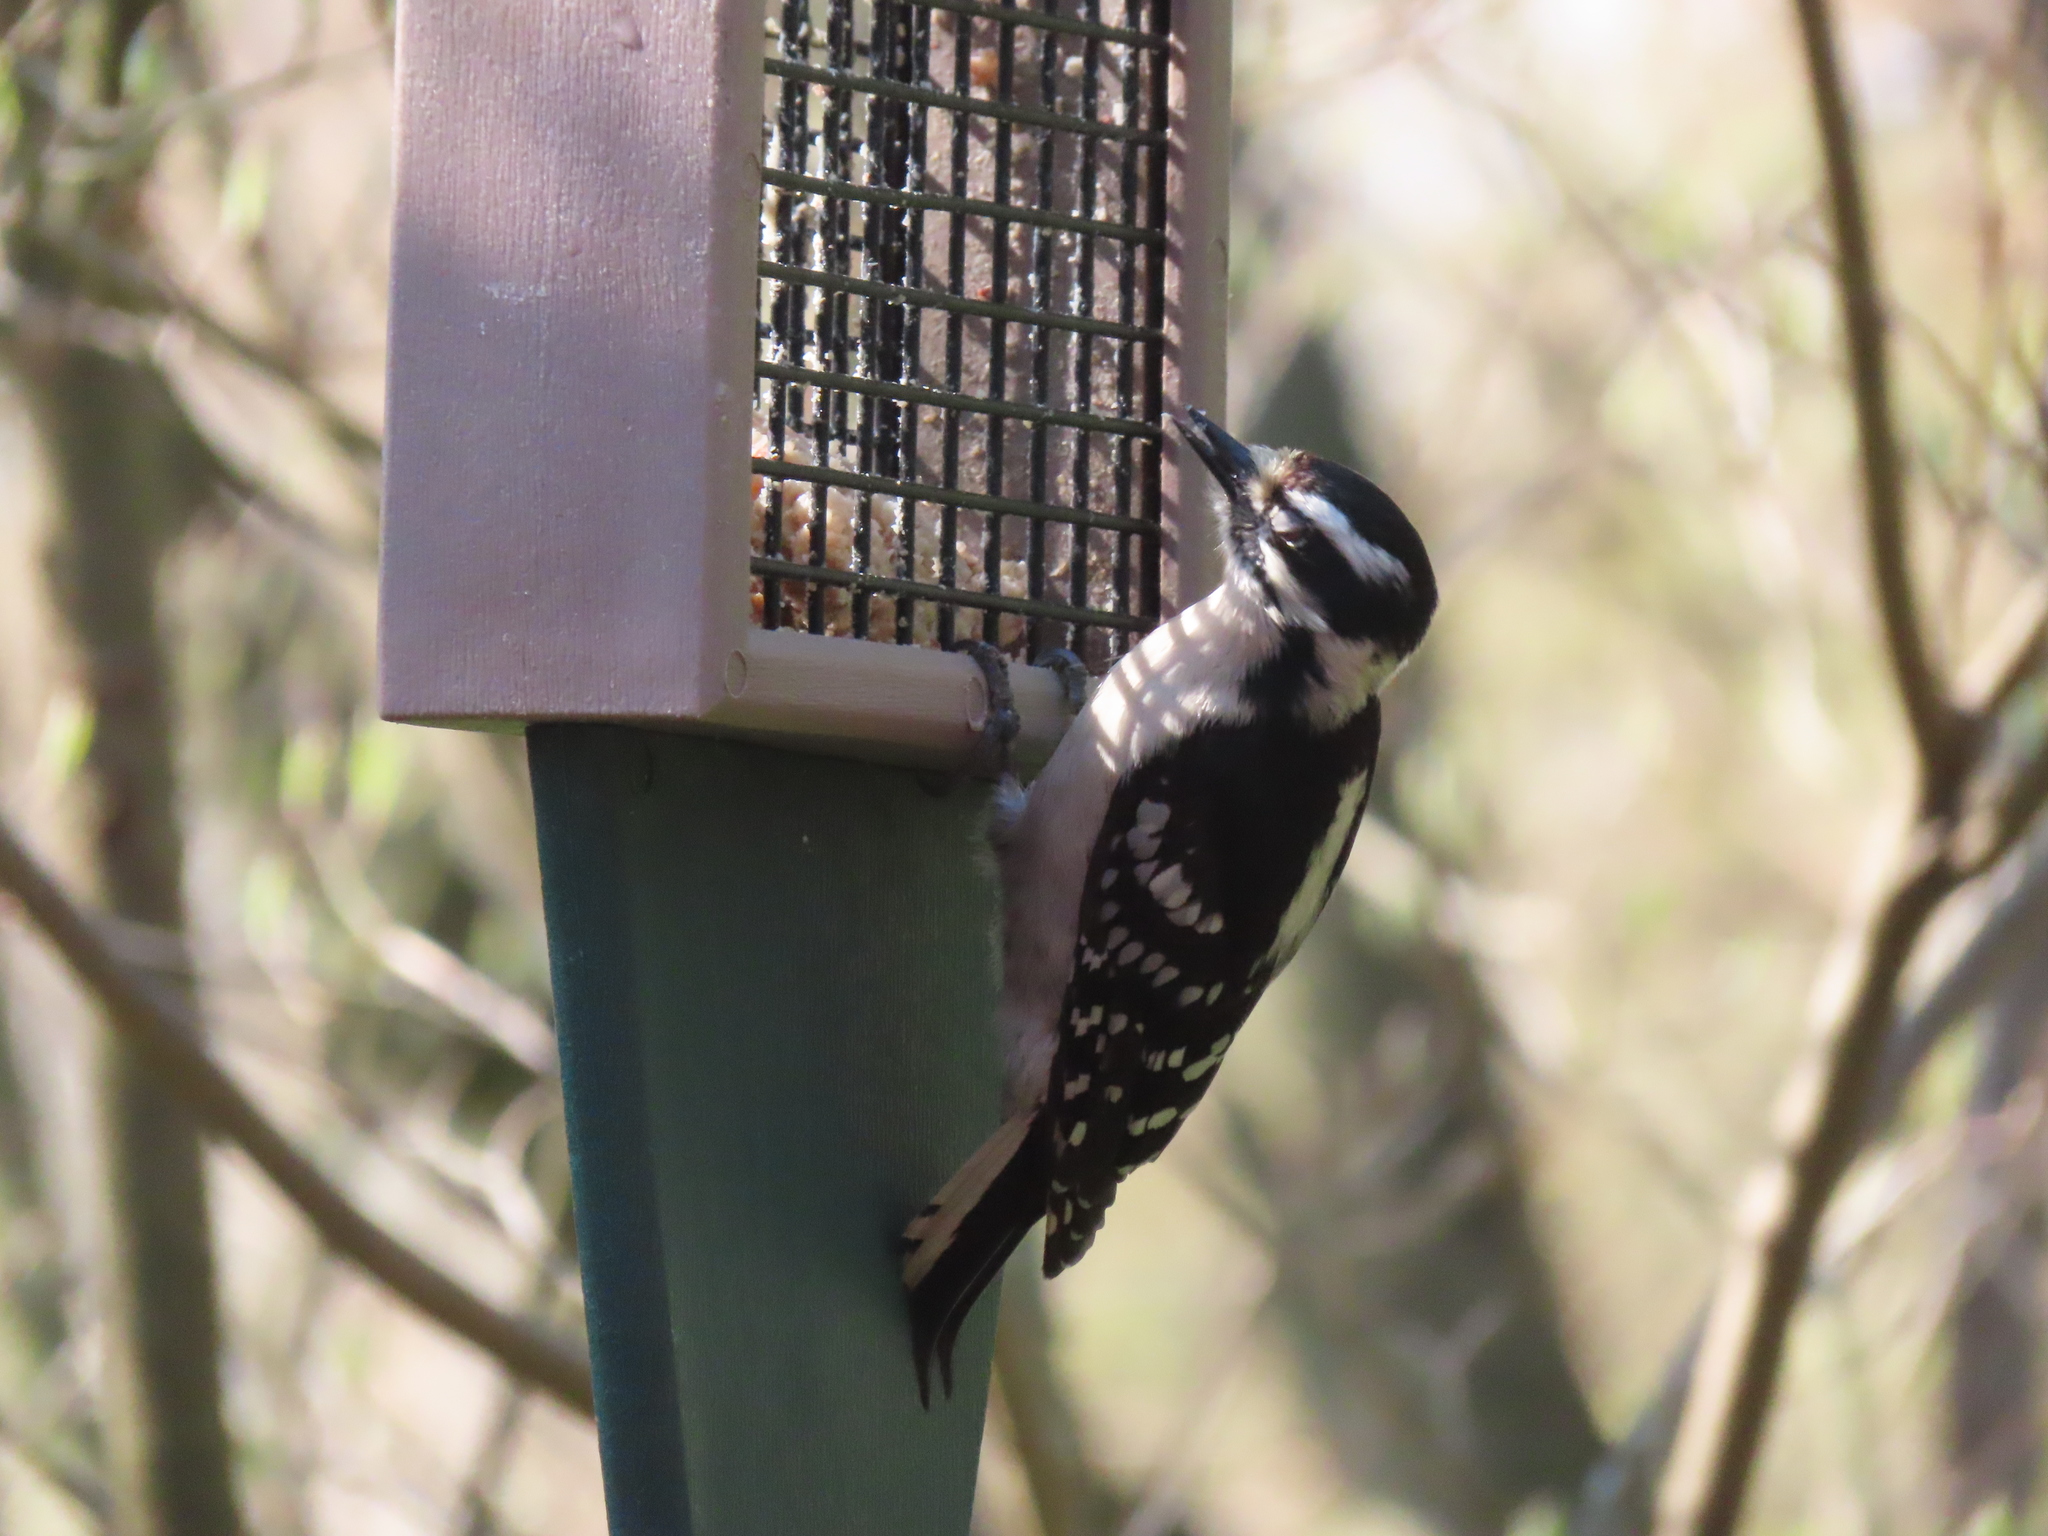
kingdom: Animalia
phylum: Chordata
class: Aves
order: Piciformes
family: Picidae
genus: Dryobates
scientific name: Dryobates pubescens
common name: Downy woodpecker
